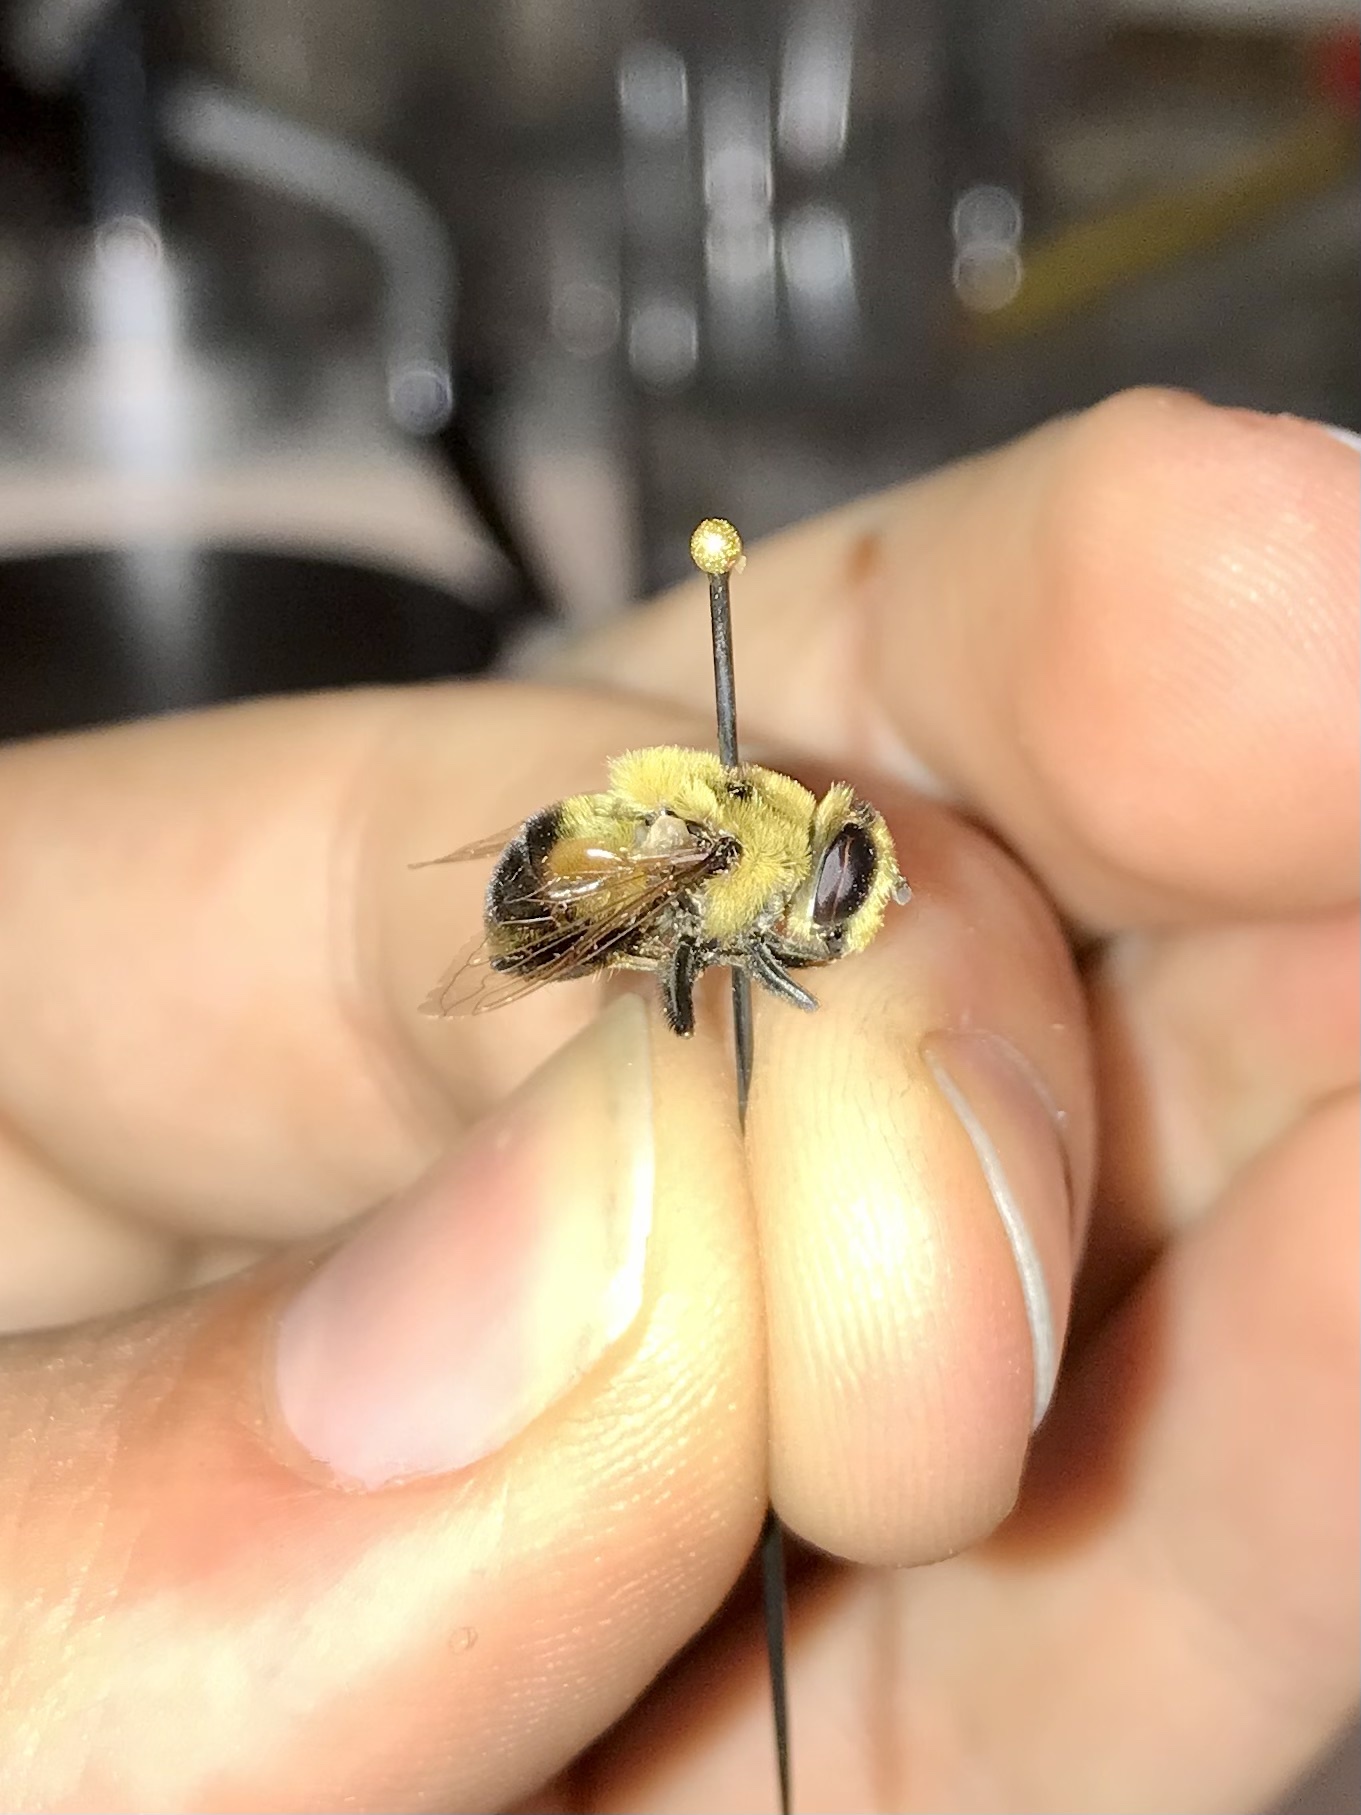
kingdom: Animalia
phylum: Arthropoda
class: Insecta
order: Diptera
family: Syrphidae
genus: Eristalis
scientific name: Eristalis anthophorina
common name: Orange-spotted drone fly
